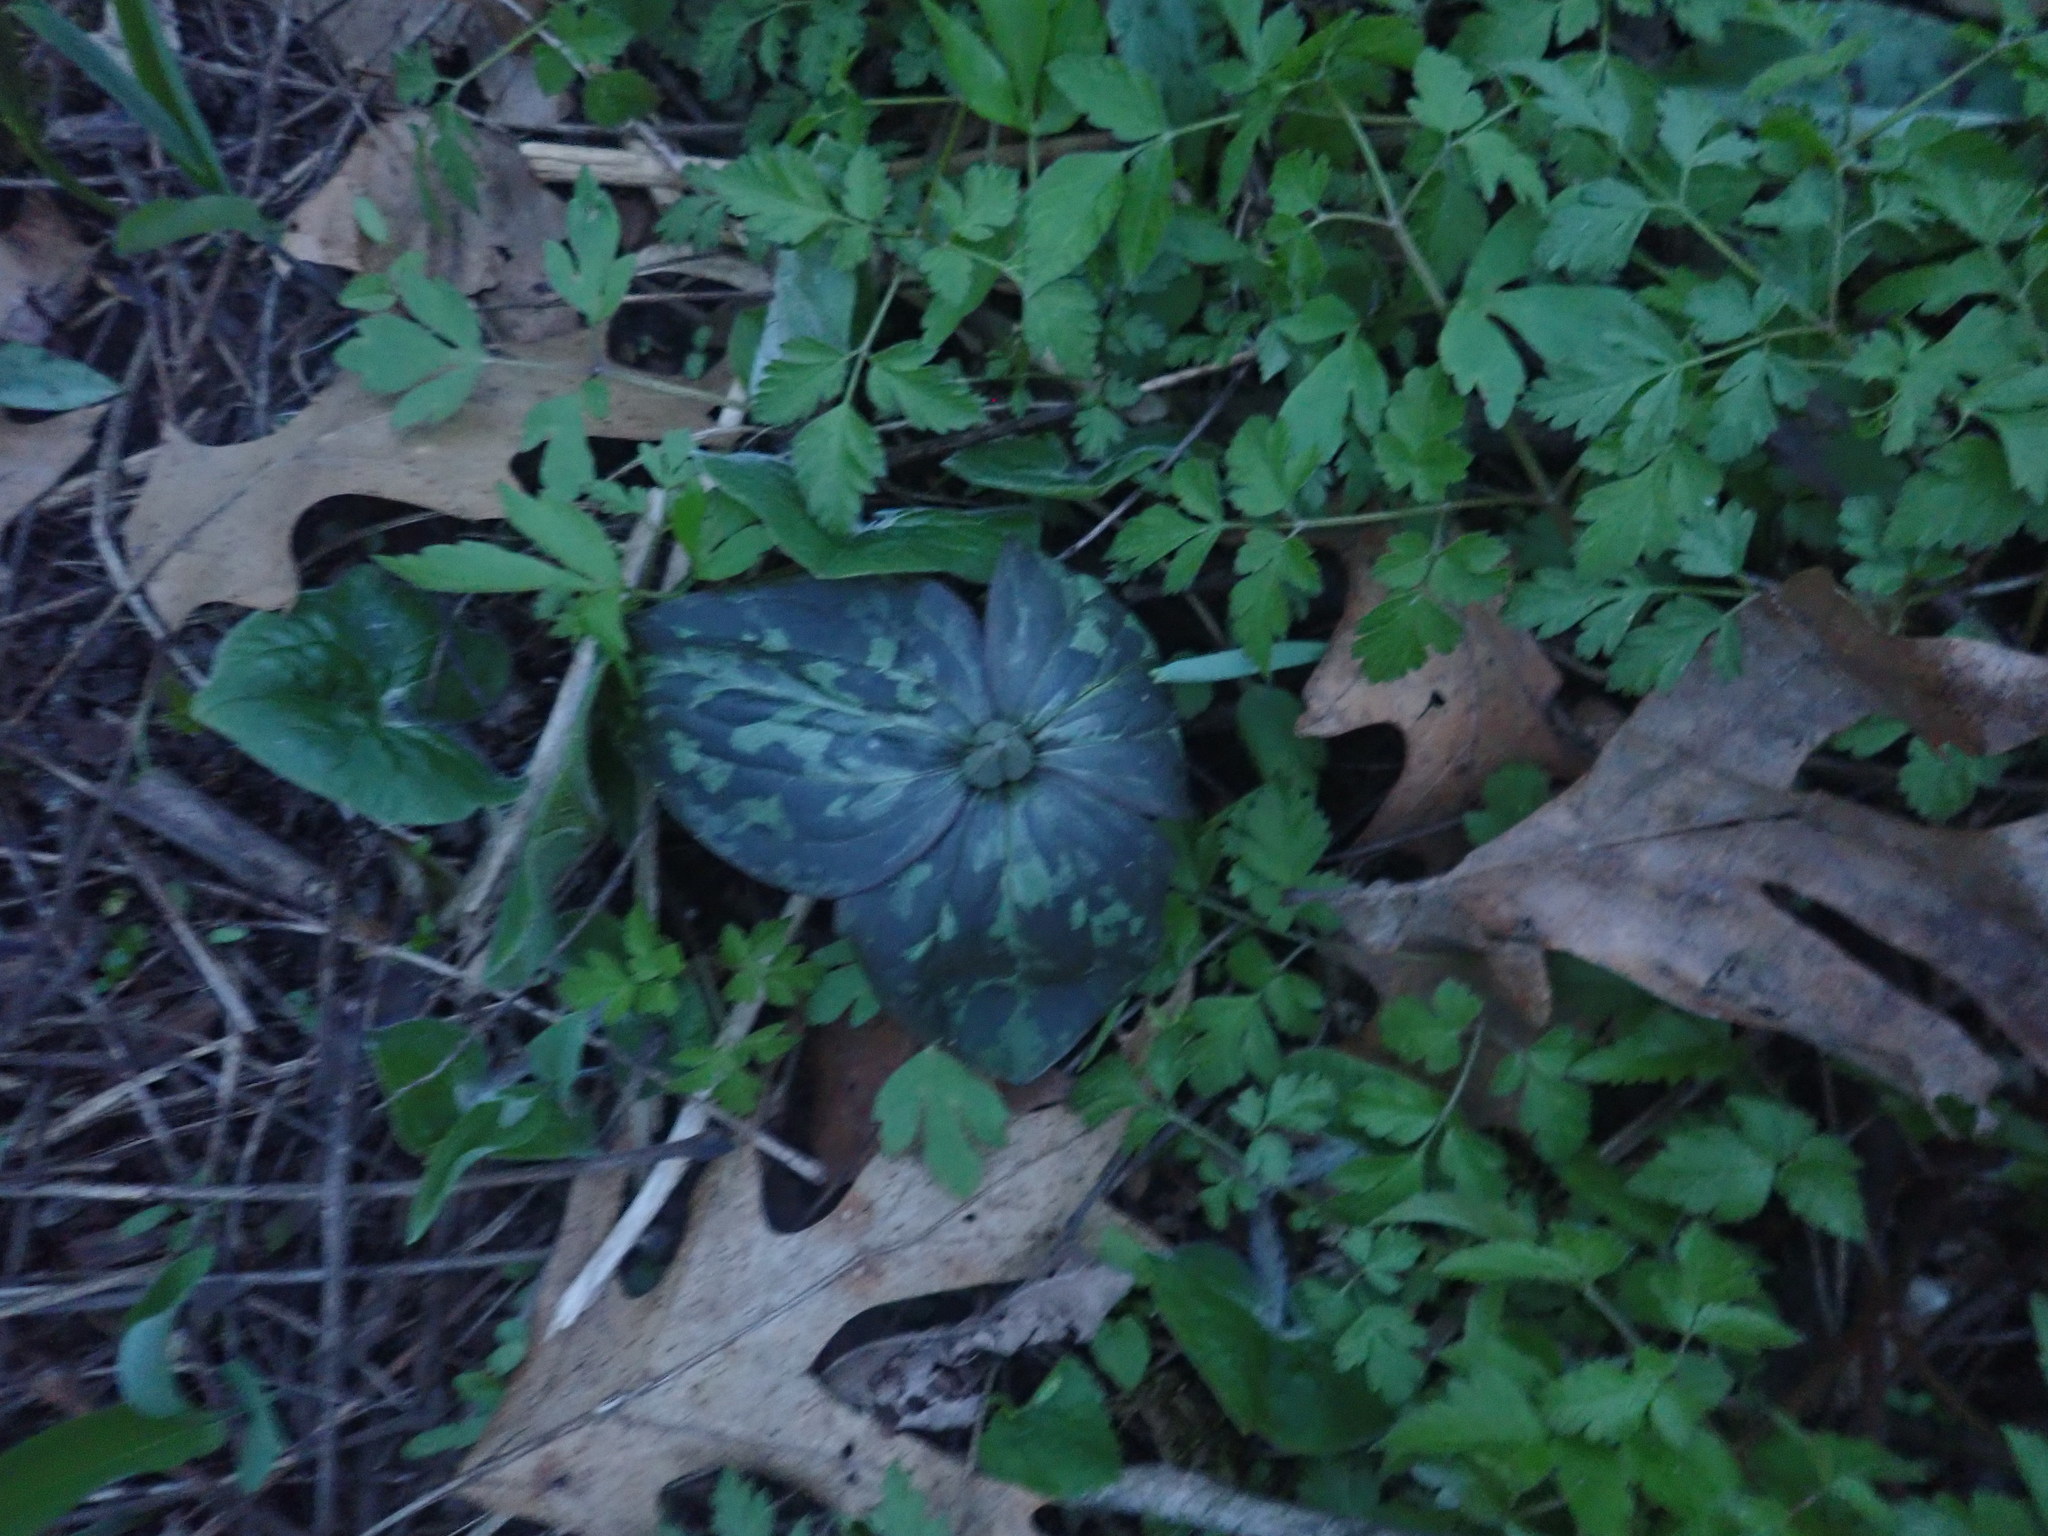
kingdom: Plantae
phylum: Tracheophyta
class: Liliopsida
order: Liliales
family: Melanthiaceae
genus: Trillium
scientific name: Trillium recurvatum
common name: Bloody butcher
